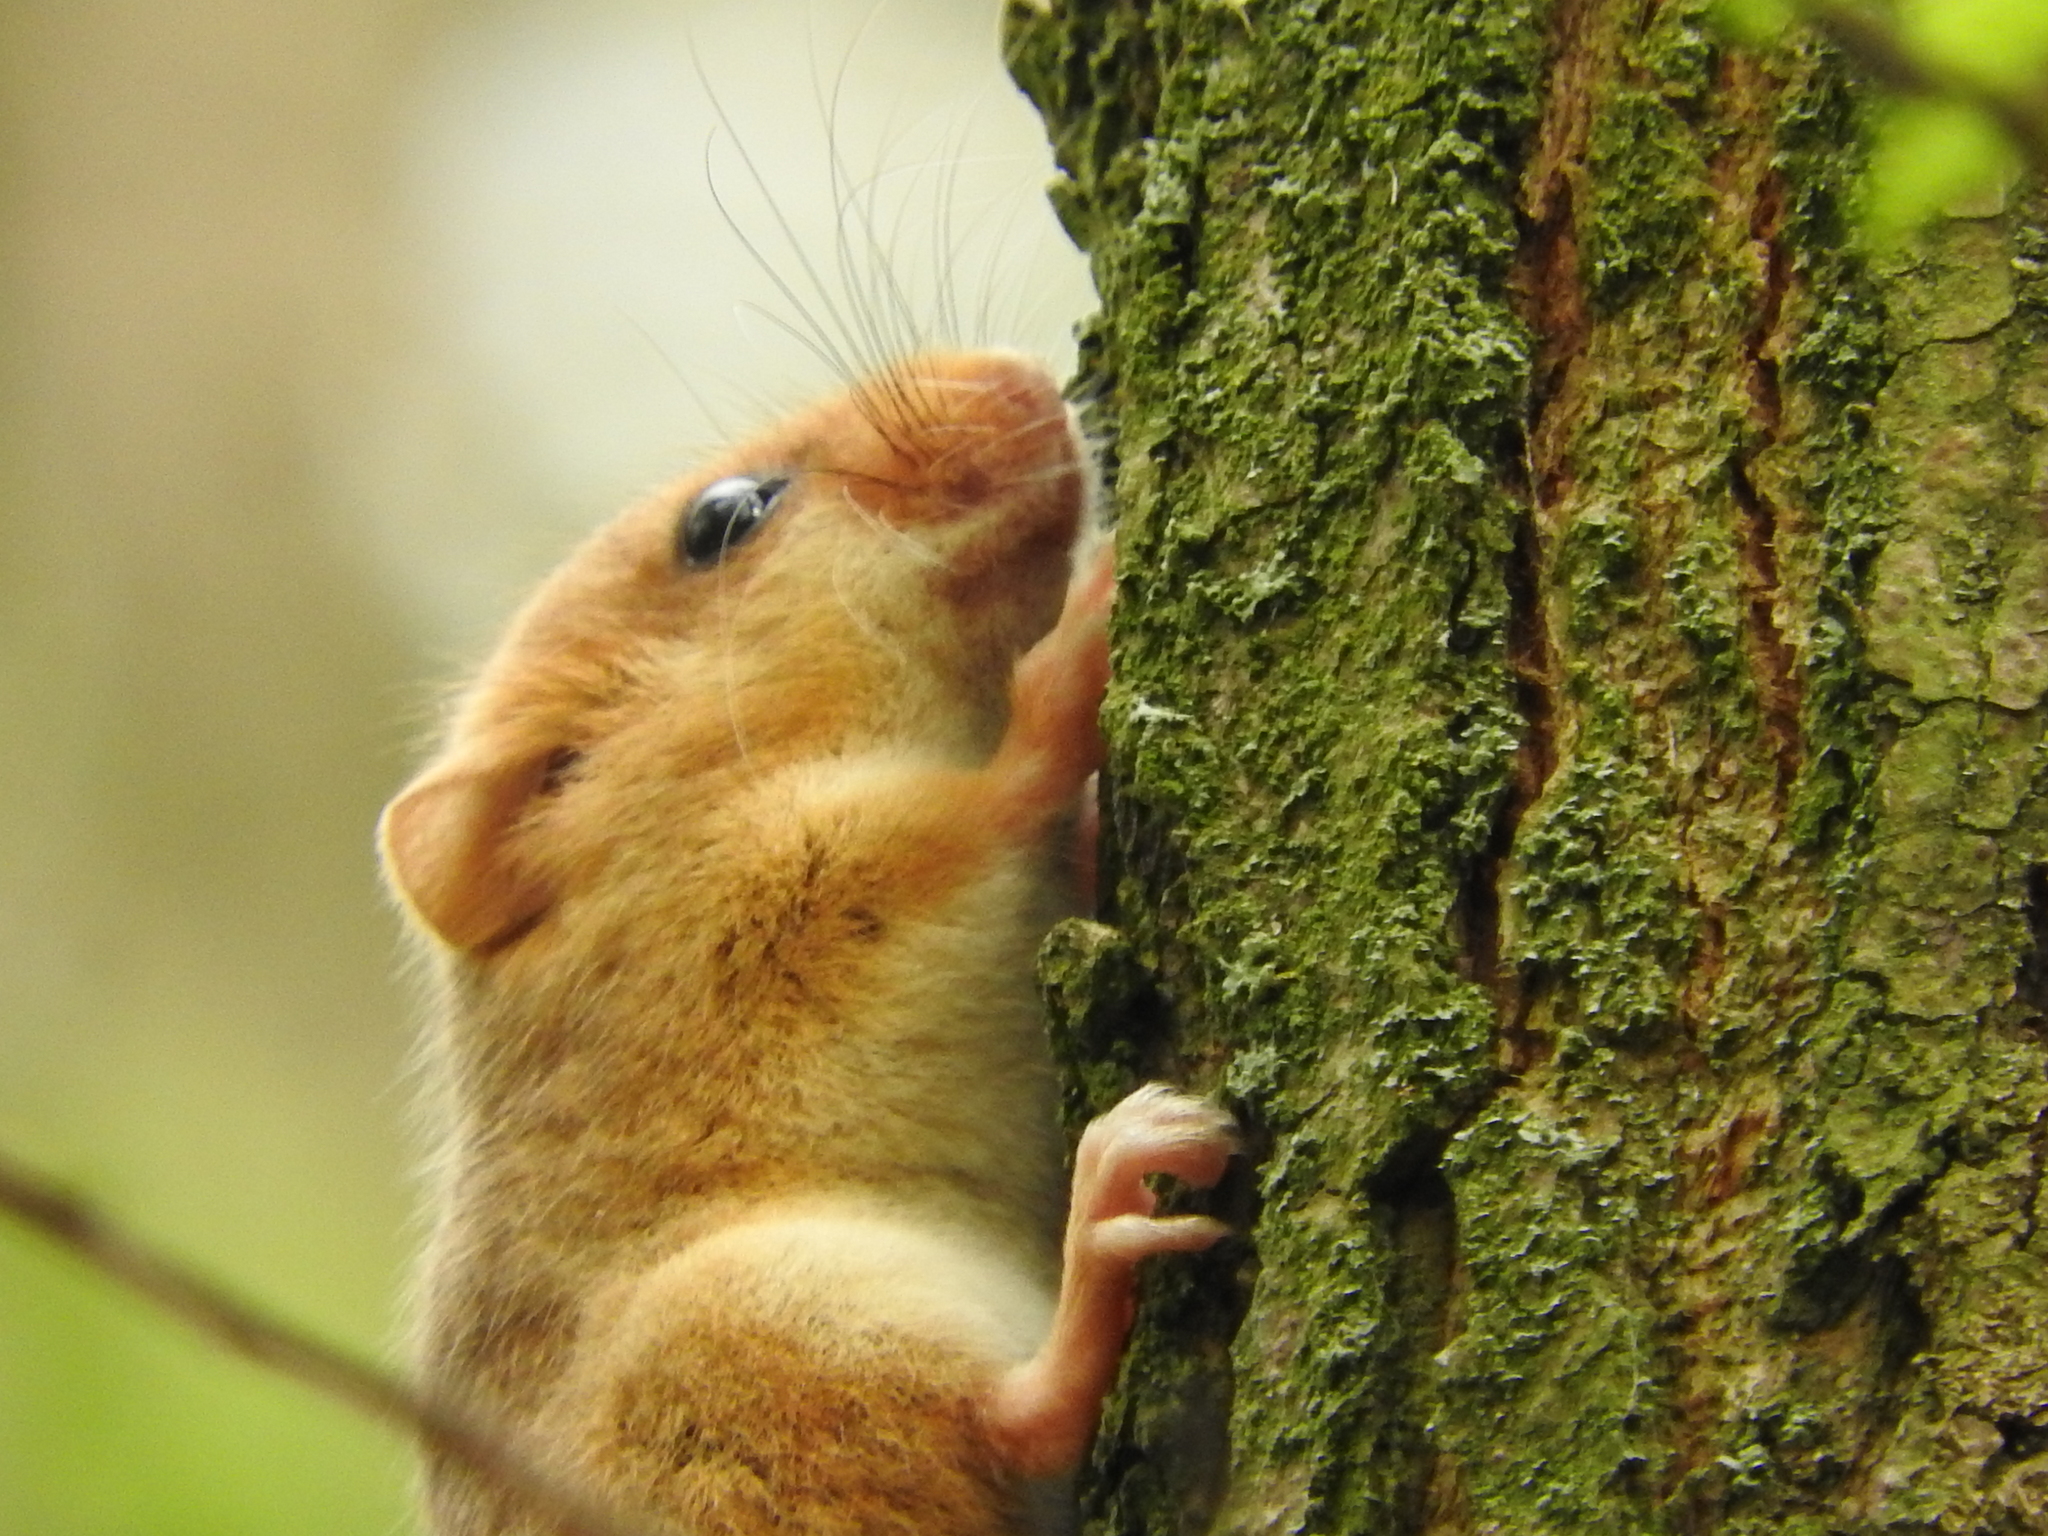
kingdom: Animalia
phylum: Chordata
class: Mammalia
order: Rodentia
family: Gliridae
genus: Muscardinus
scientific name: Muscardinus avellanarius
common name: Hazel dormouse
